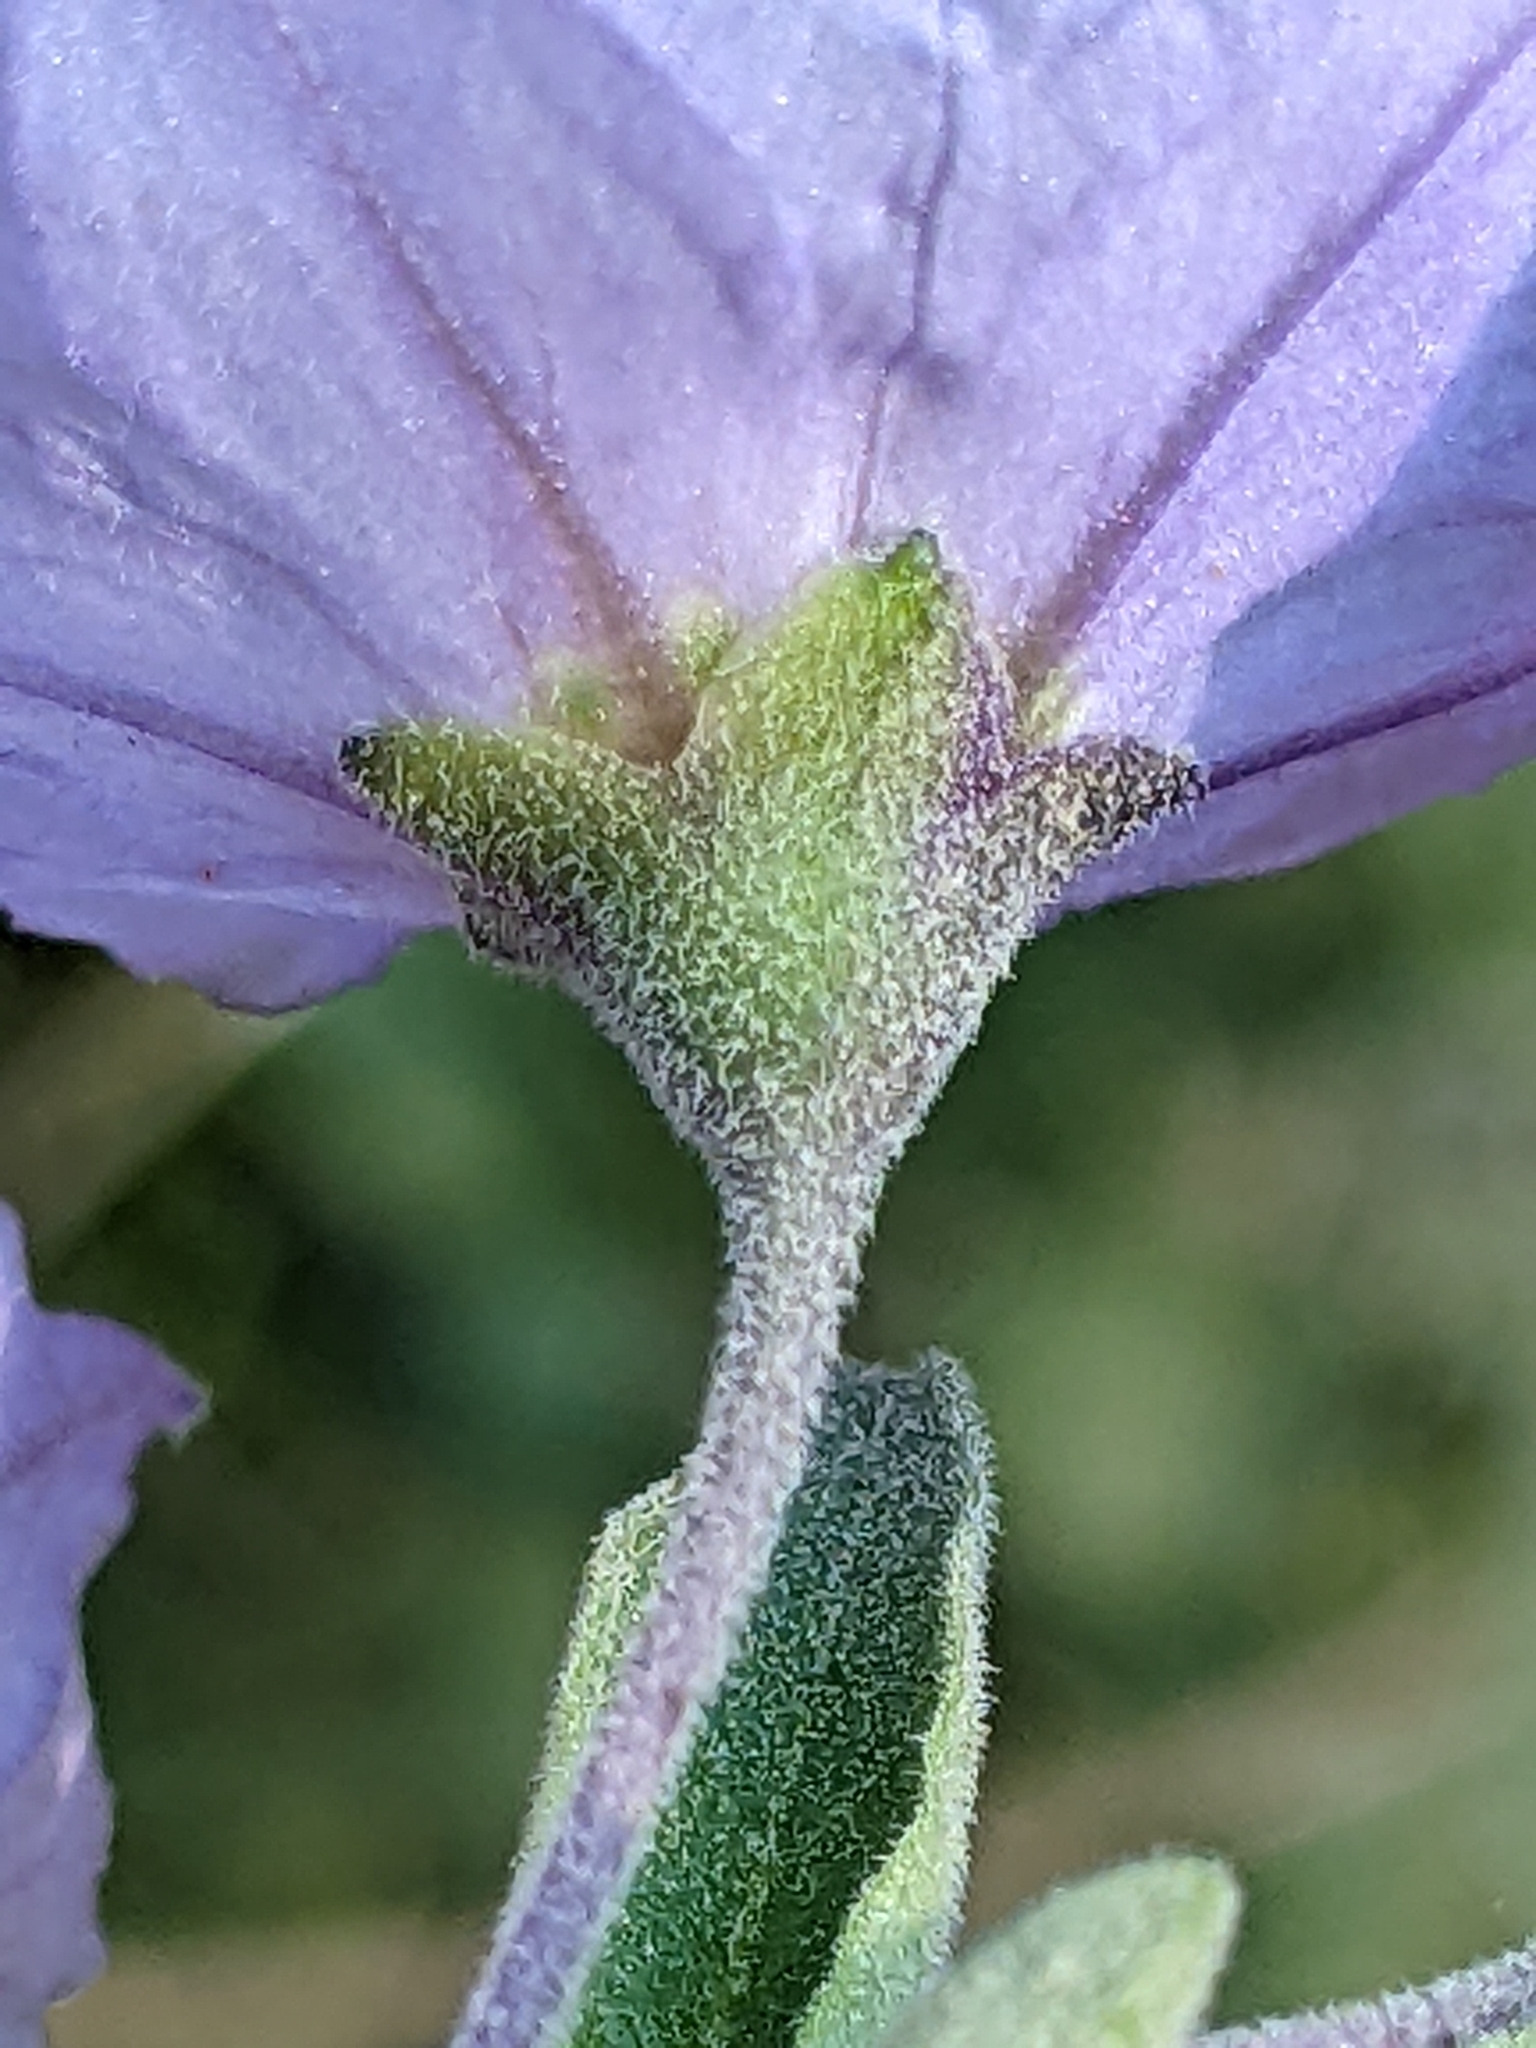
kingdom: Plantae
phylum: Tracheophyta
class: Magnoliopsida
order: Solanales
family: Solanaceae
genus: Solanum
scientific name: Solanum umbelliferum
